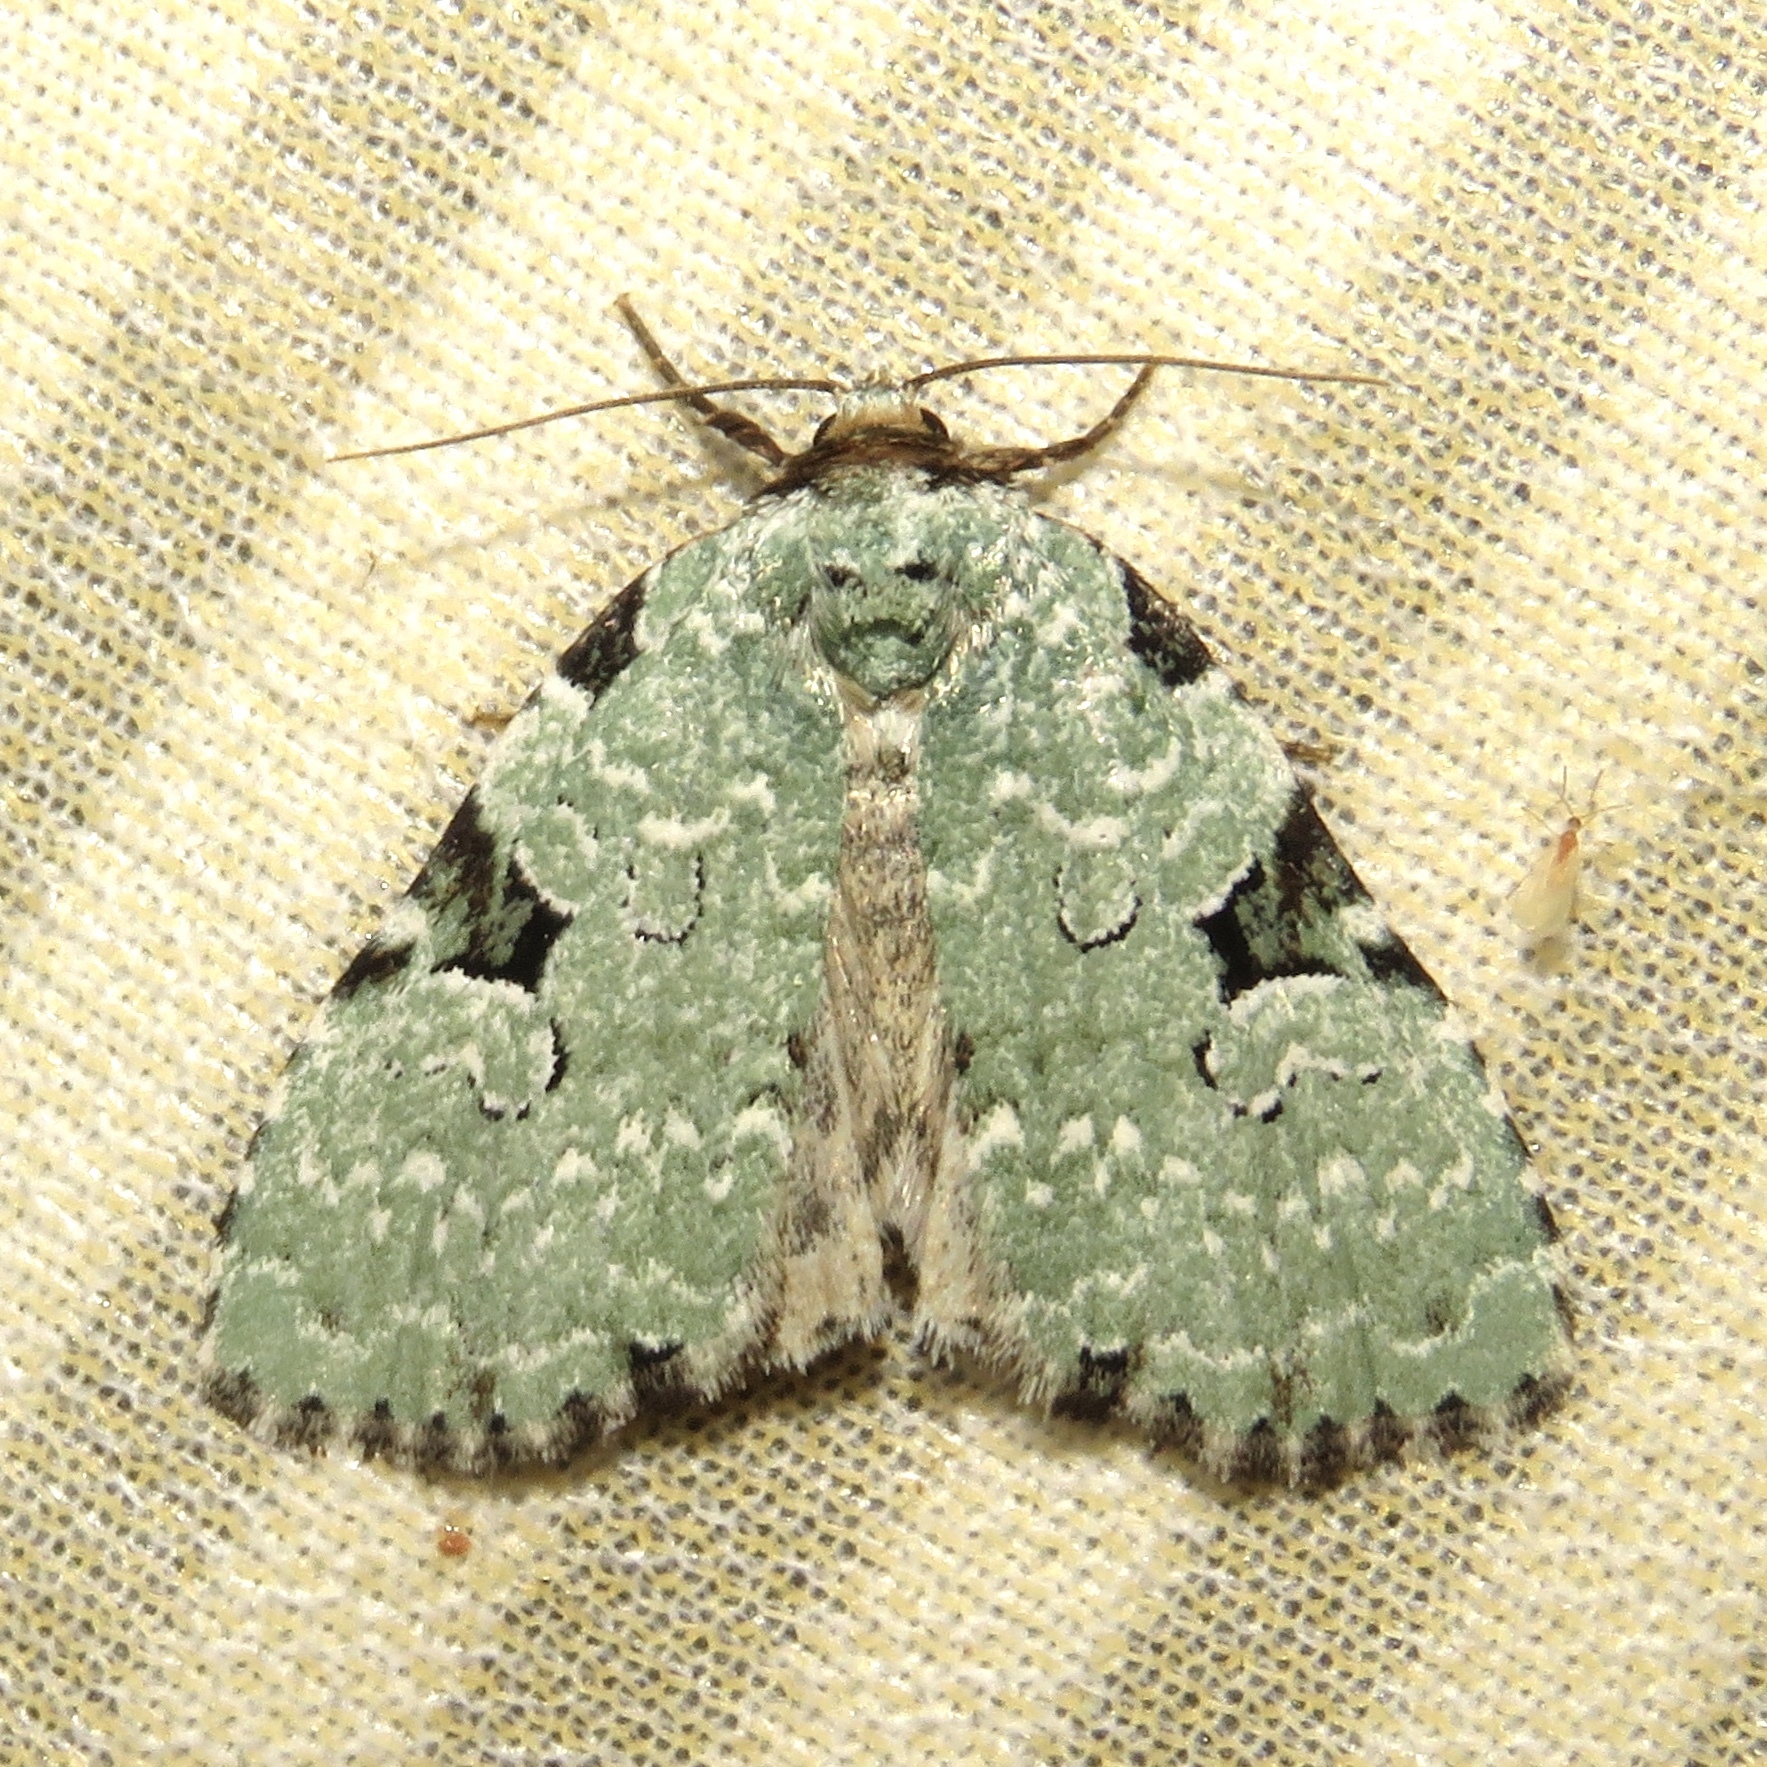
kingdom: Animalia
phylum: Arthropoda
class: Insecta
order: Lepidoptera
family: Noctuidae
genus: Leuconycta
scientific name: Leuconycta diphteroides
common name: Green leuconycta moth
